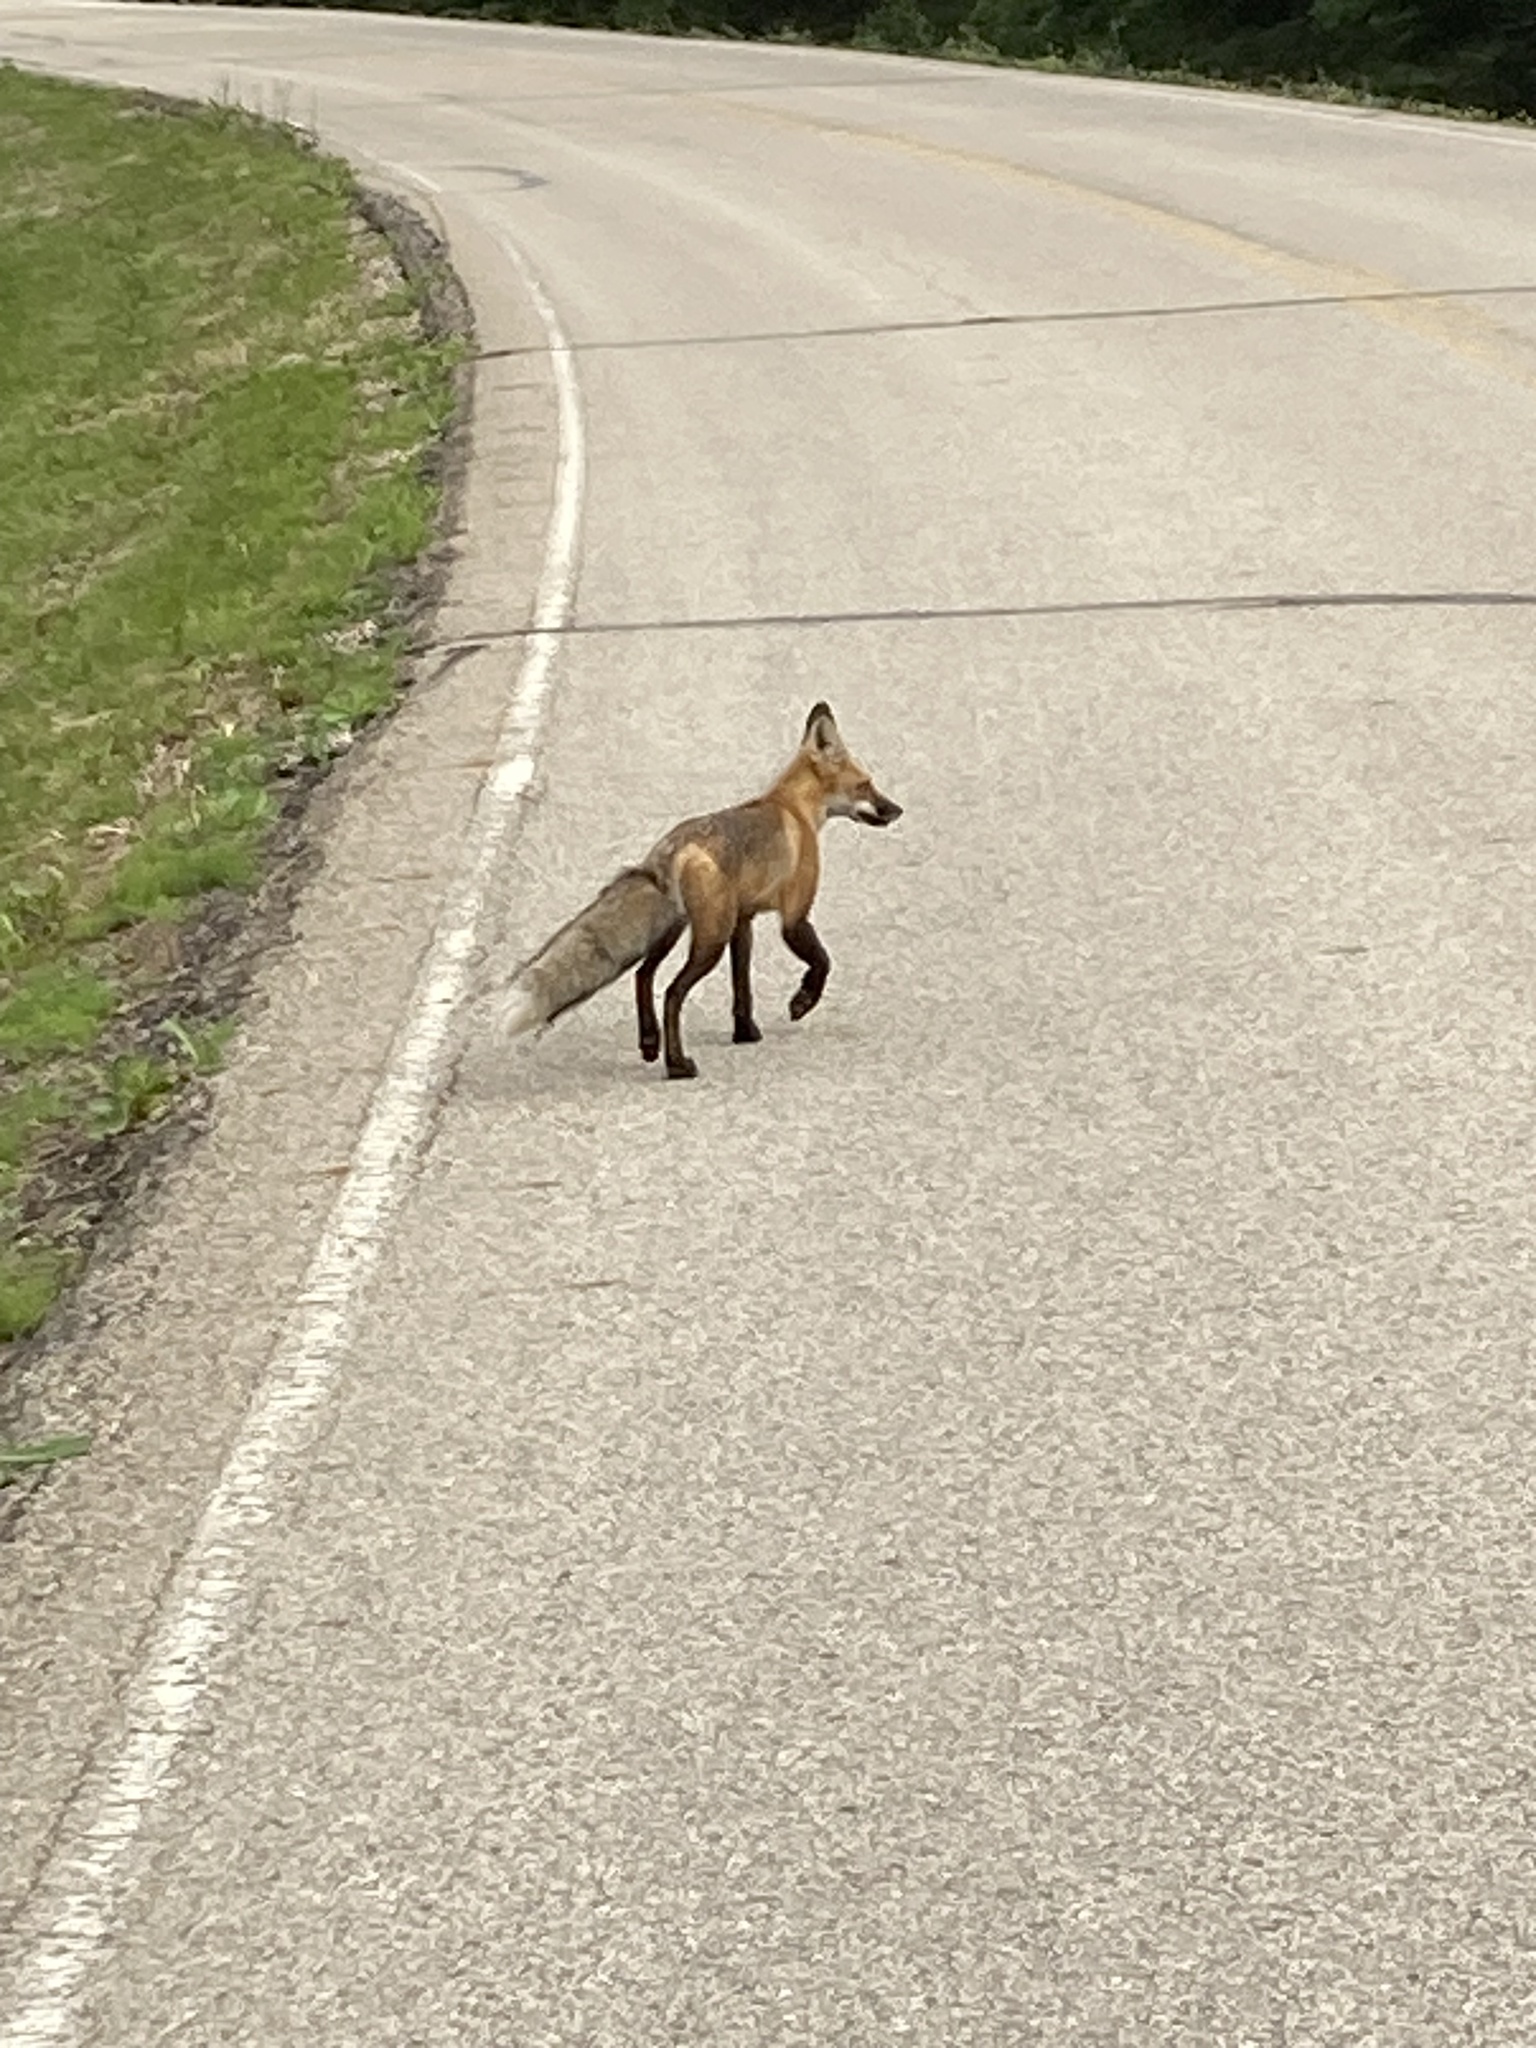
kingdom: Animalia
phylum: Chordata
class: Mammalia
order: Carnivora
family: Canidae
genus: Vulpes
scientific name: Vulpes vulpes
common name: Red fox
